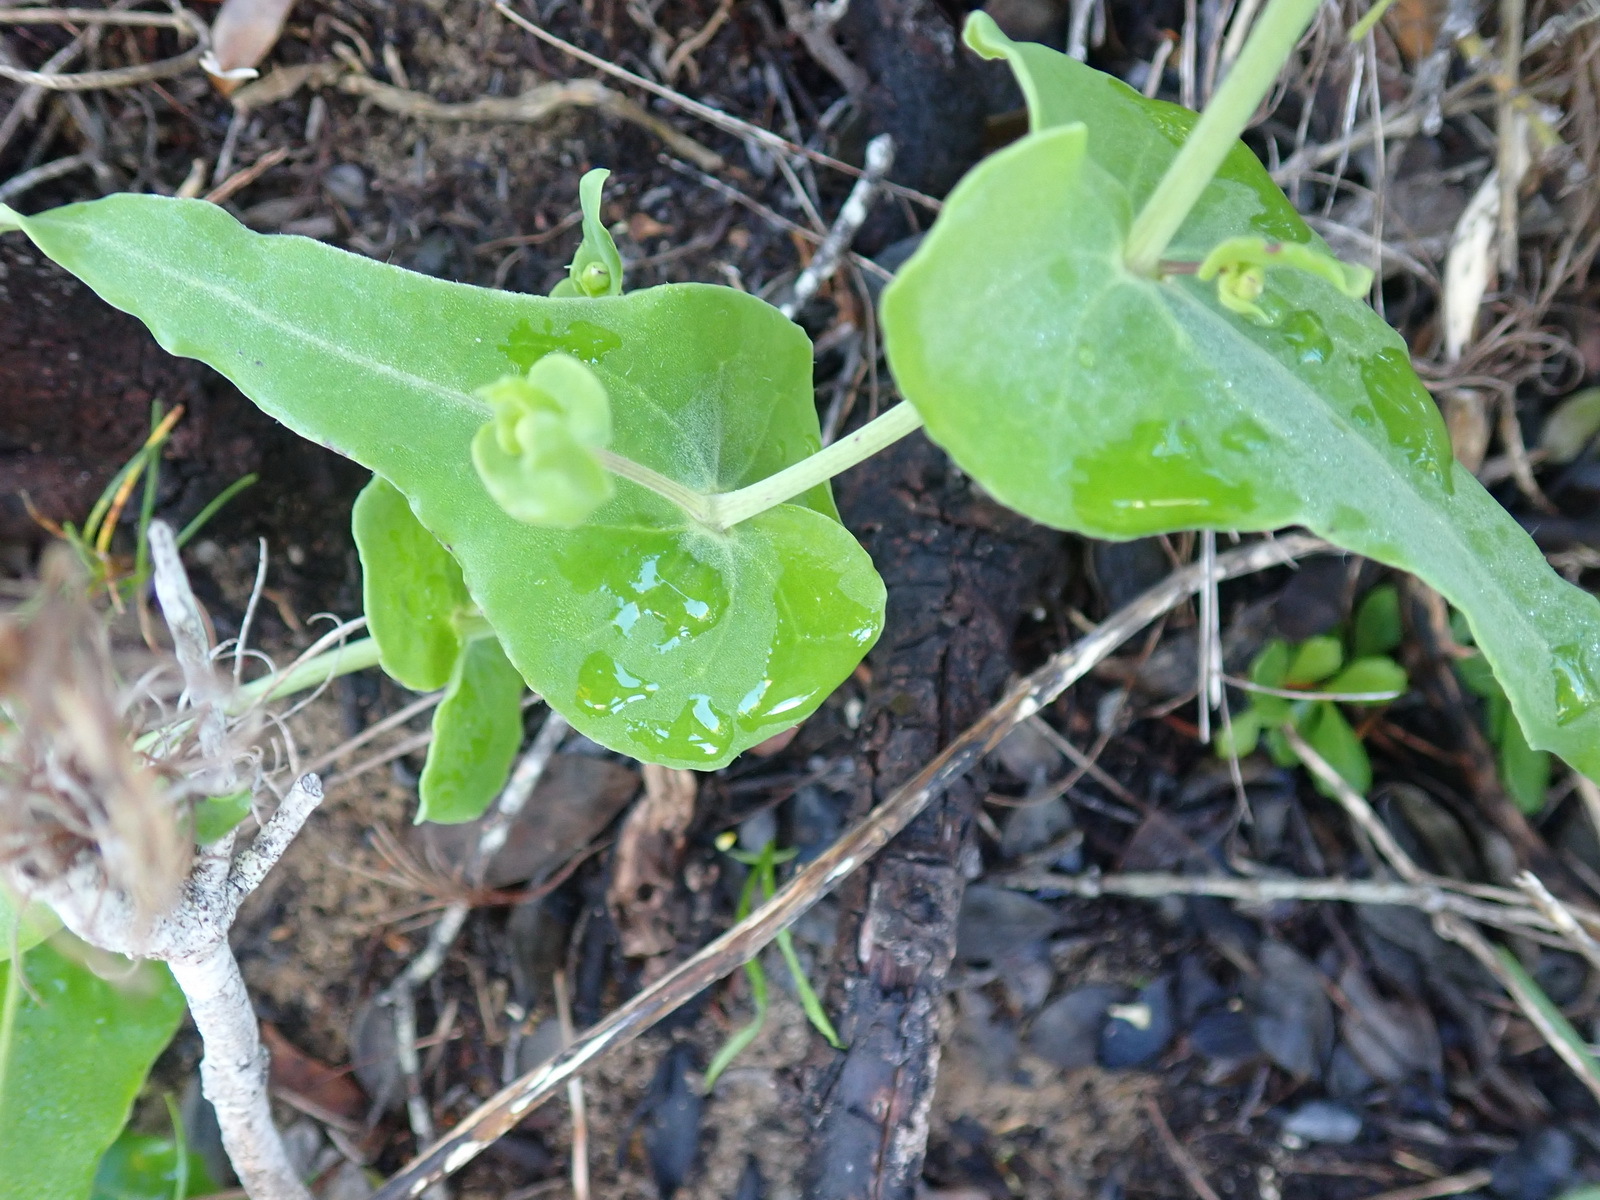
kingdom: Plantae
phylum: Tracheophyta
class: Magnoliopsida
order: Asterales
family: Asteraceae
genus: Othonna
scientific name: Othonna undulosa
